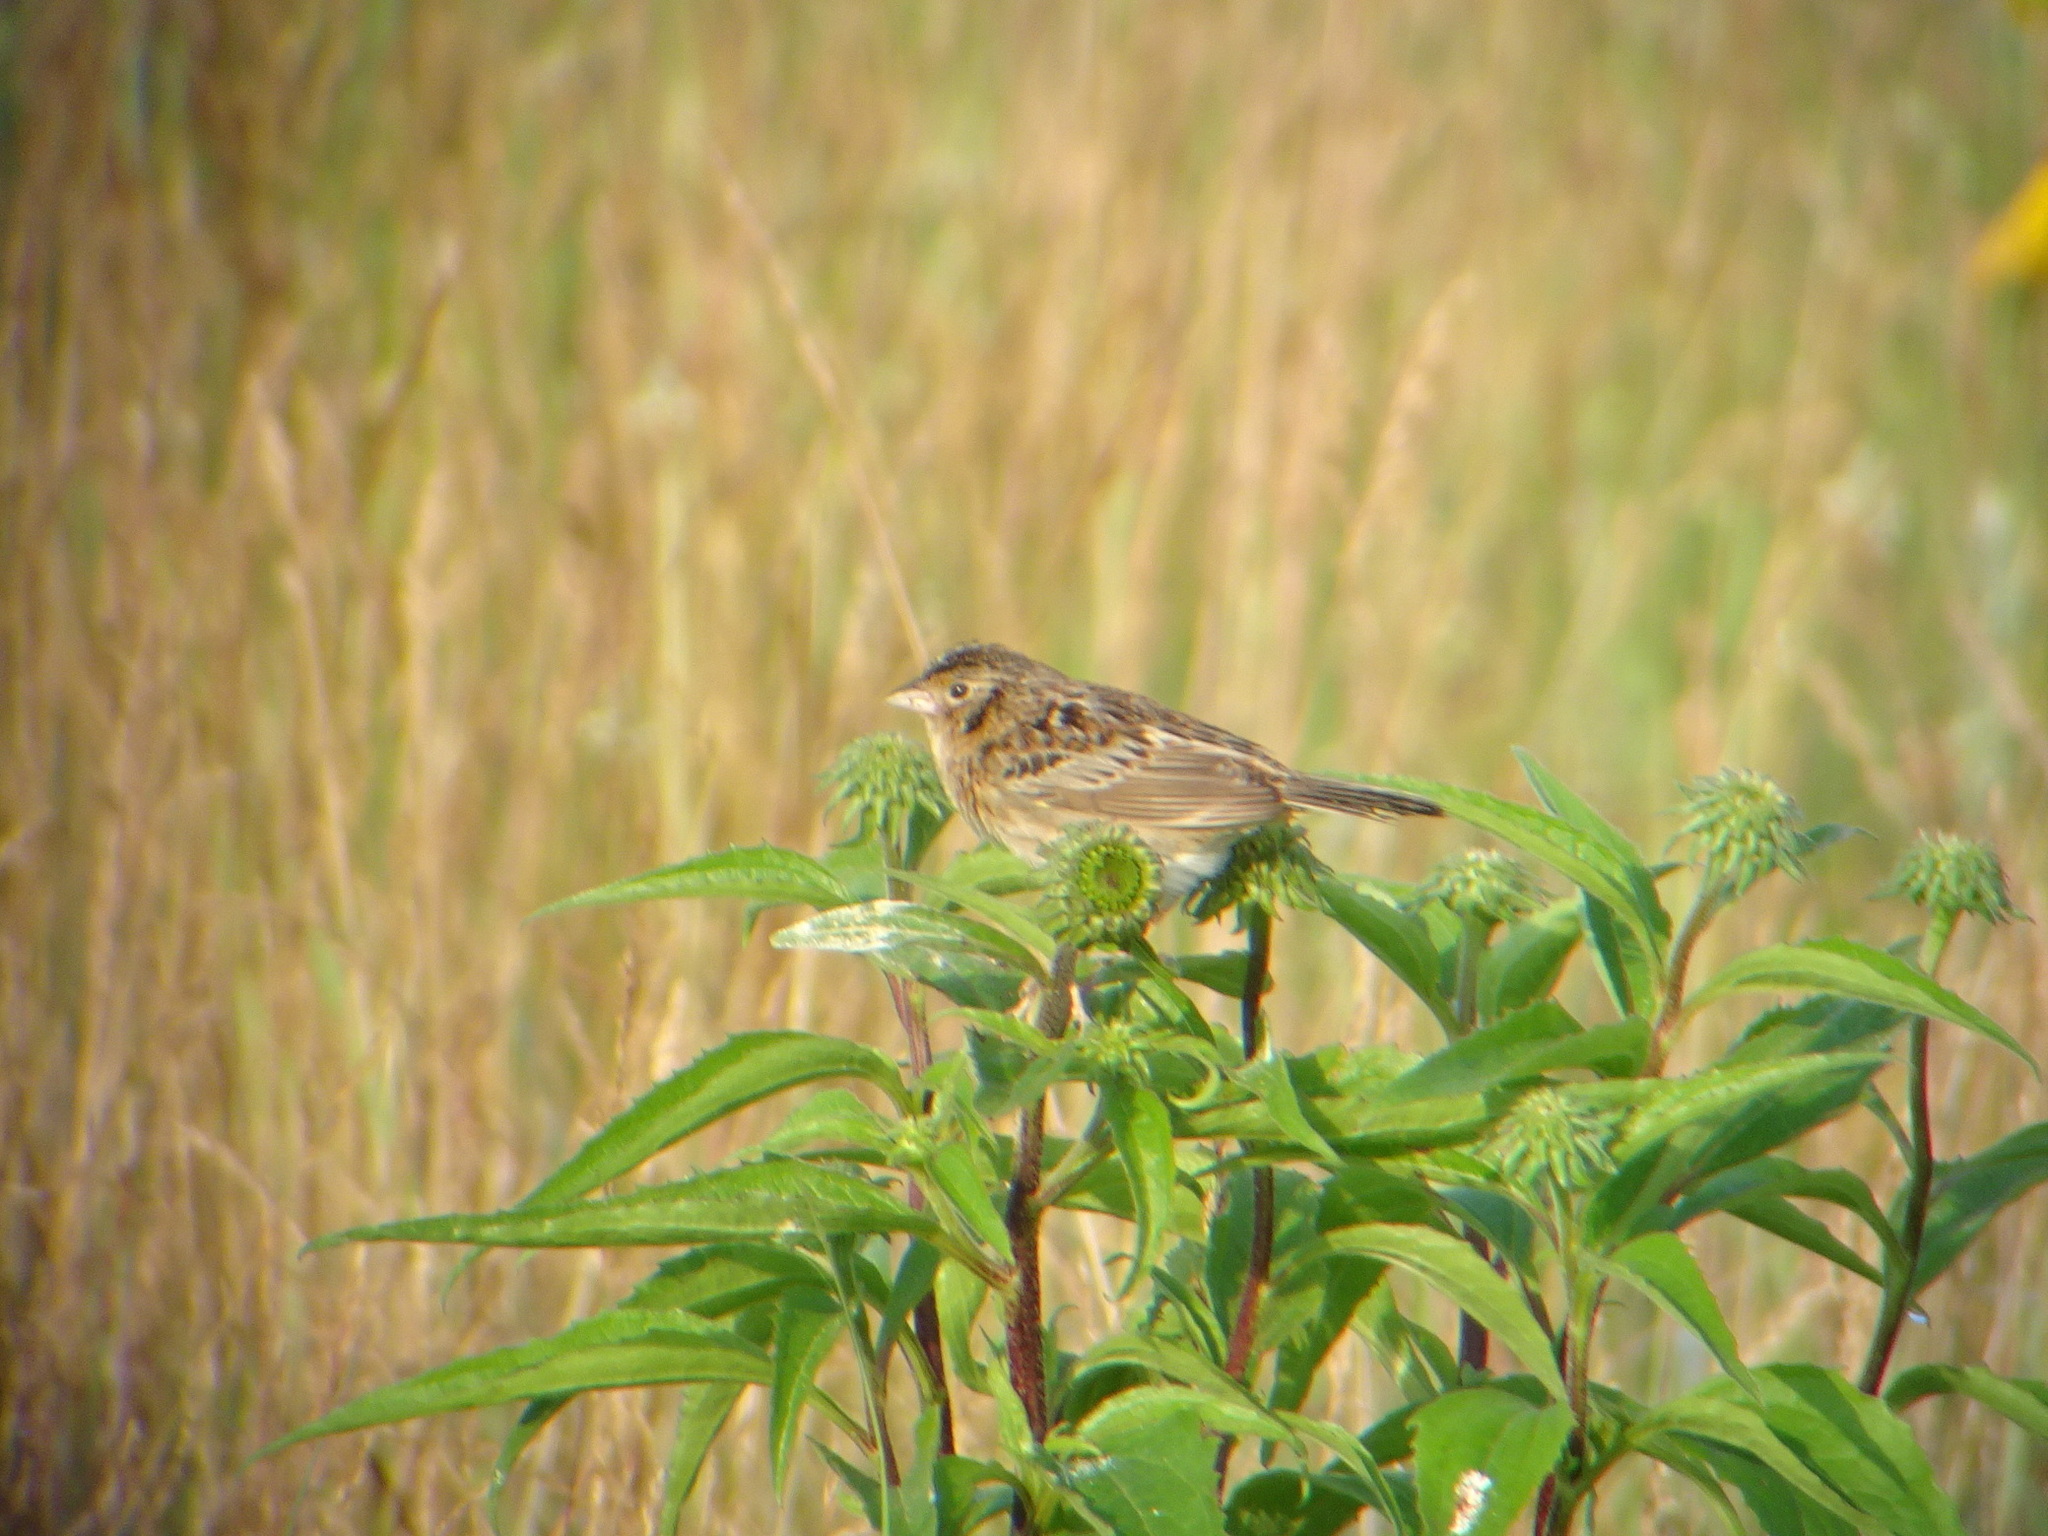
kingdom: Animalia
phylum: Chordata
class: Aves
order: Passeriformes
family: Passerellidae
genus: Ammodramus
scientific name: Ammodramus savannarum
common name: Grasshopper sparrow
